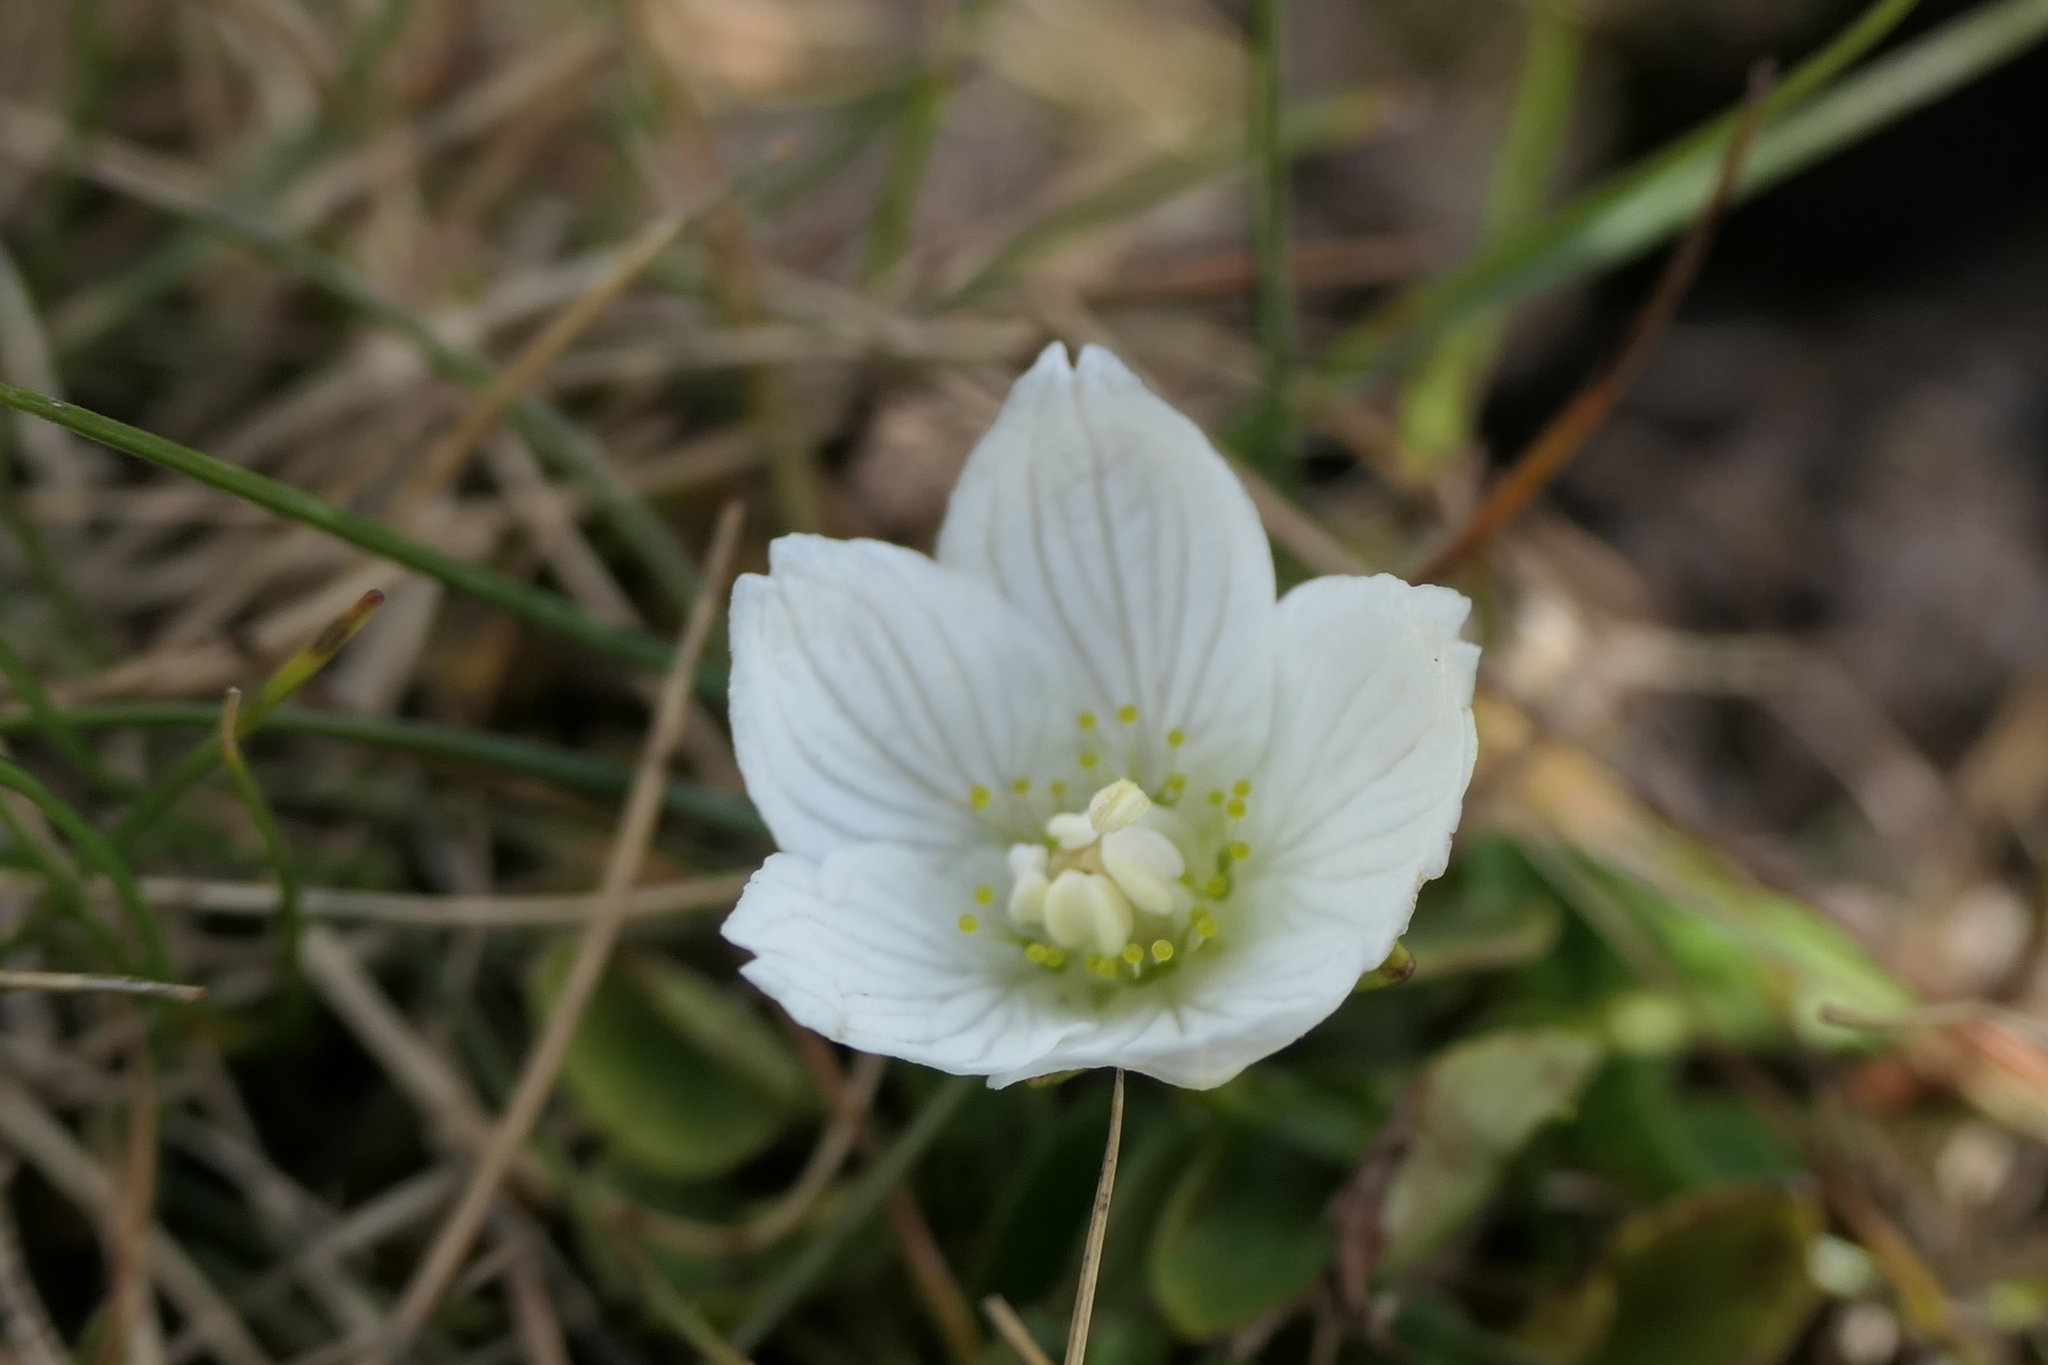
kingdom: Plantae
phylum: Tracheophyta
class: Magnoliopsida
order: Celastrales
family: Parnassiaceae
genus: Parnassia
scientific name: Parnassia palustris
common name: Grass-of-parnassus
